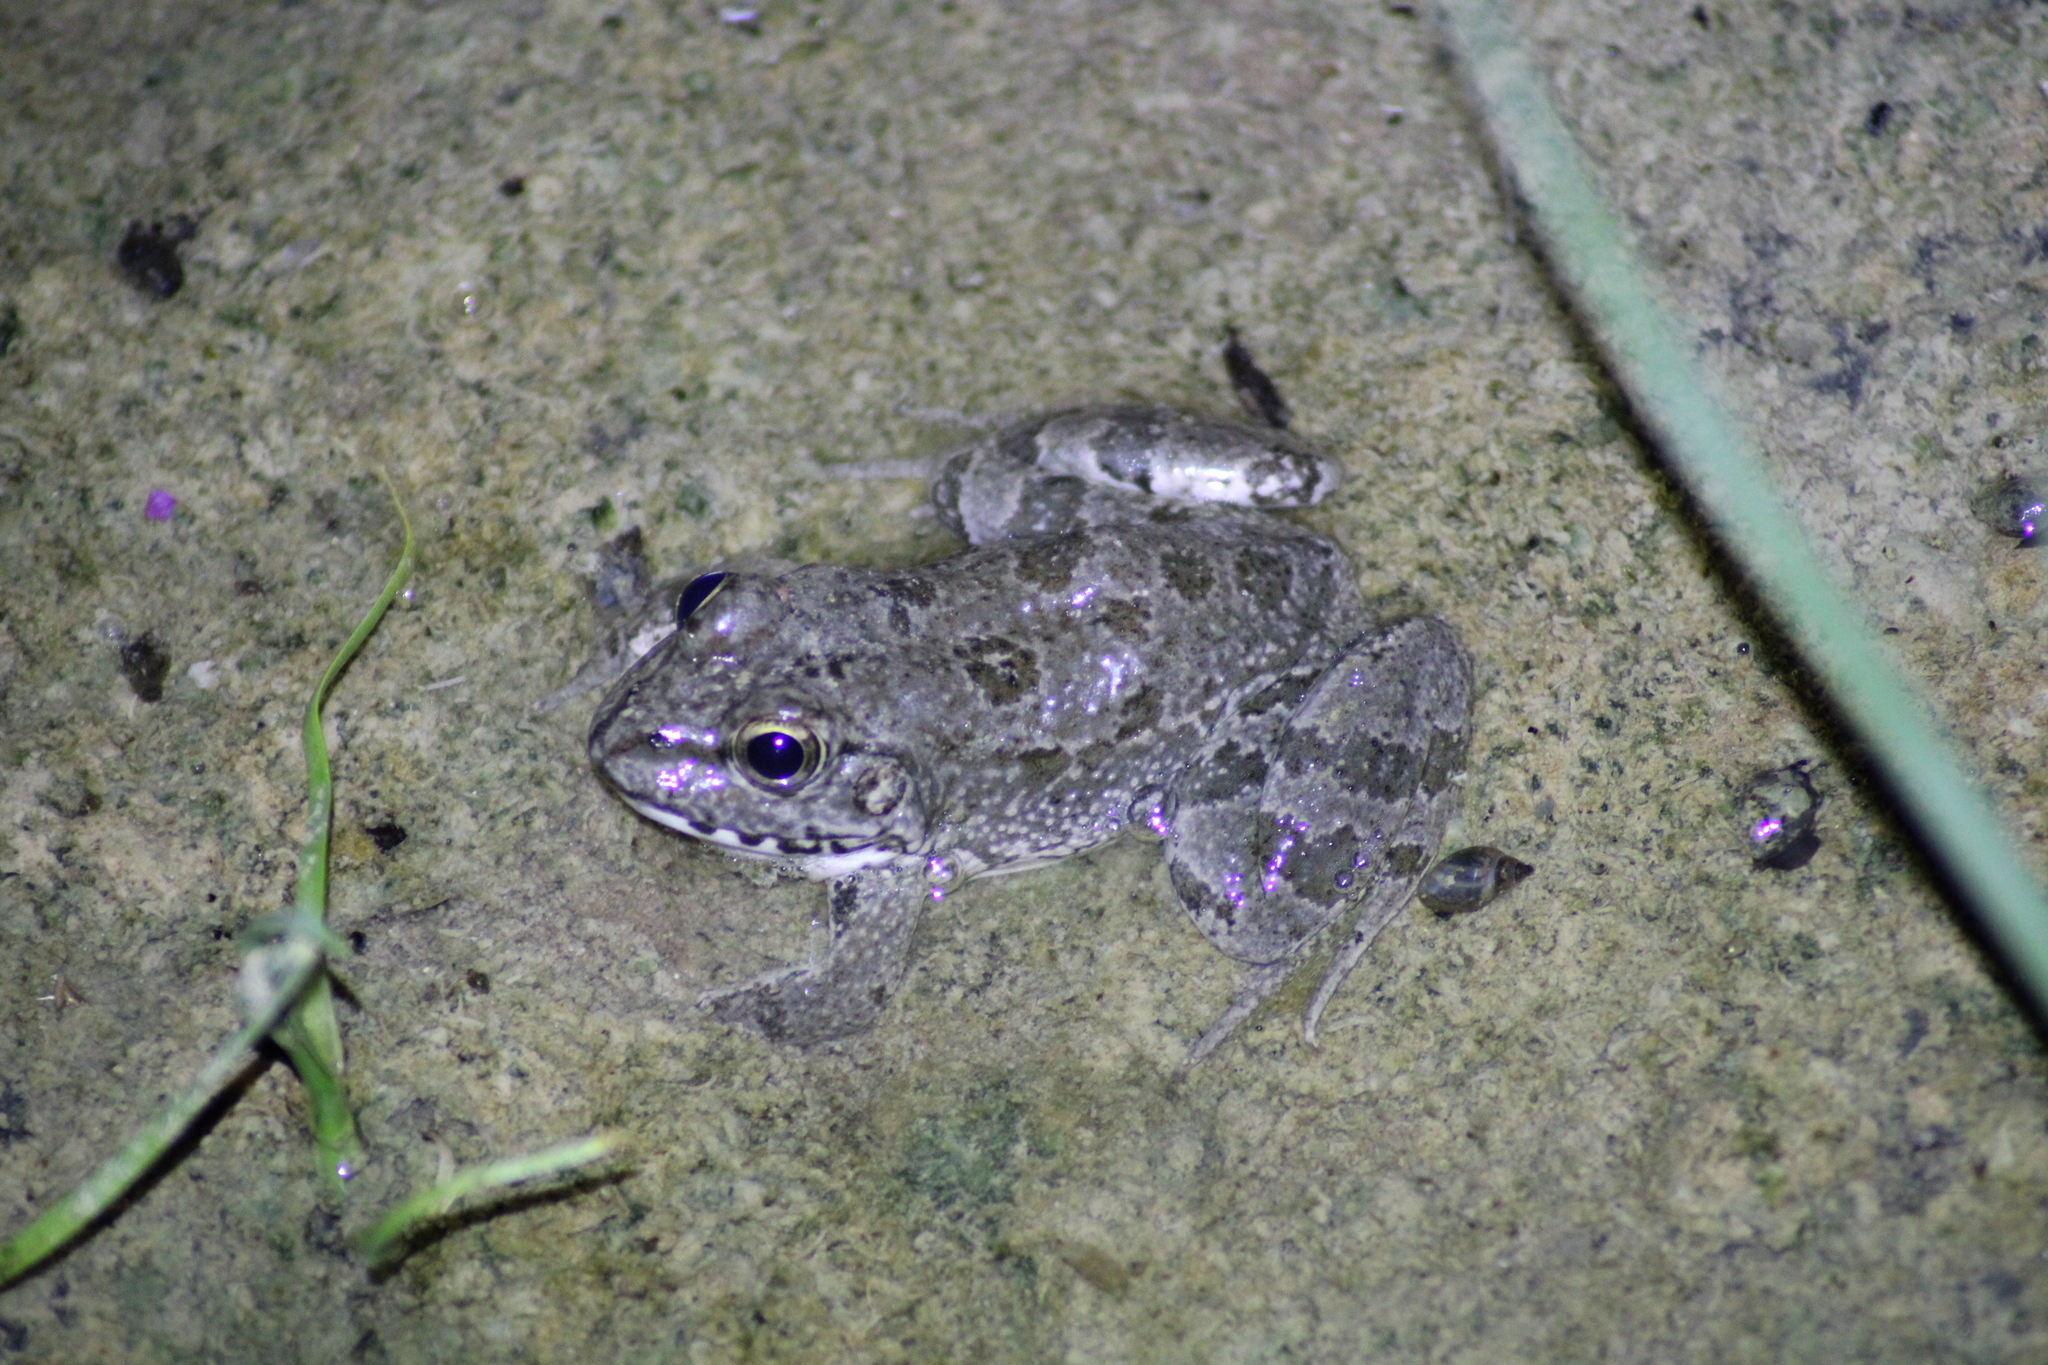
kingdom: Animalia
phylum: Chordata
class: Amphibia
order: Anura
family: Ranidae
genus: Pelophylax
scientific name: Pelophylax ridibundus
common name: Marsh frog
